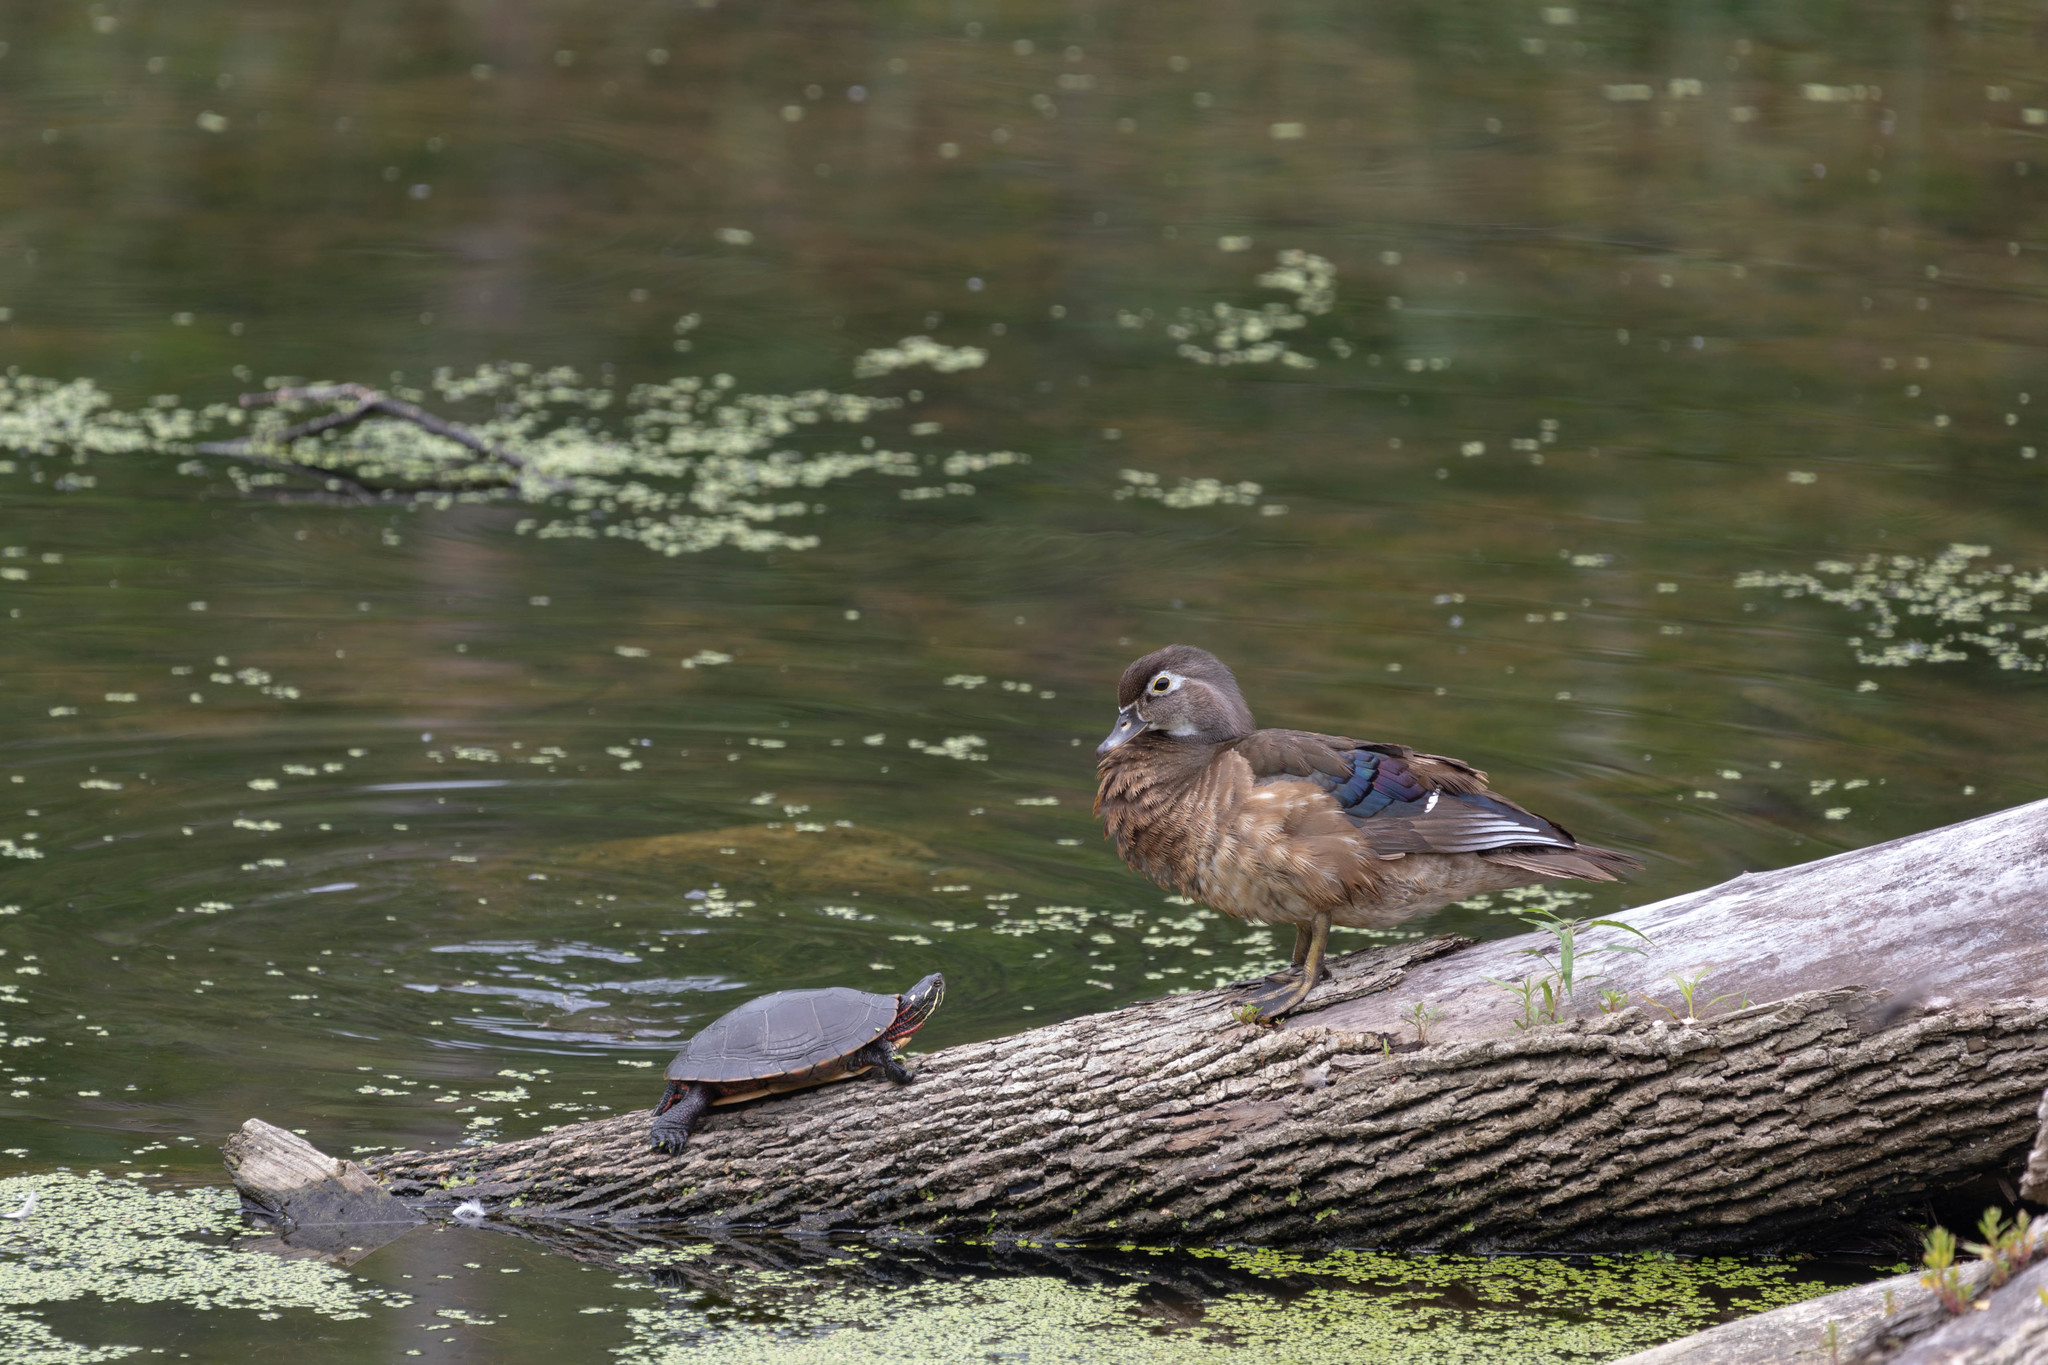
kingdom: Animalia
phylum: Chordata
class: Testudines
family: Emydidae
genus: Chrysemys
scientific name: Chrysemys picta
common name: Painted turtle
